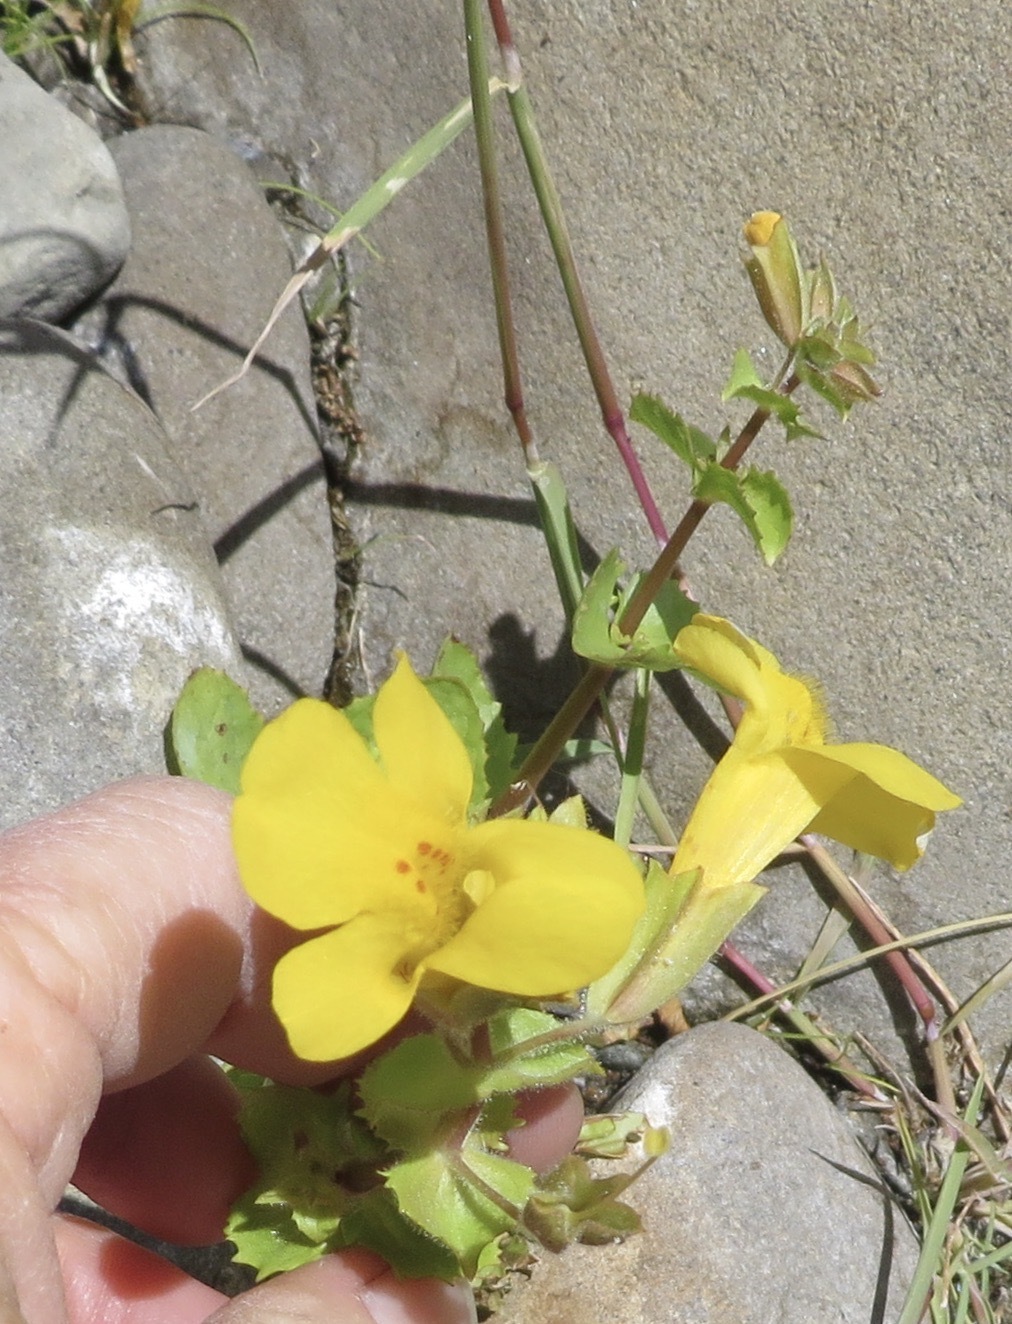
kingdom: Plantae
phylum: Tracheophyta
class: Magnoliopsida
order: Lamiales
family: Phrymaceae
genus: Erythranthe
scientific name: Erythranthe guttata
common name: Monkeyflower
